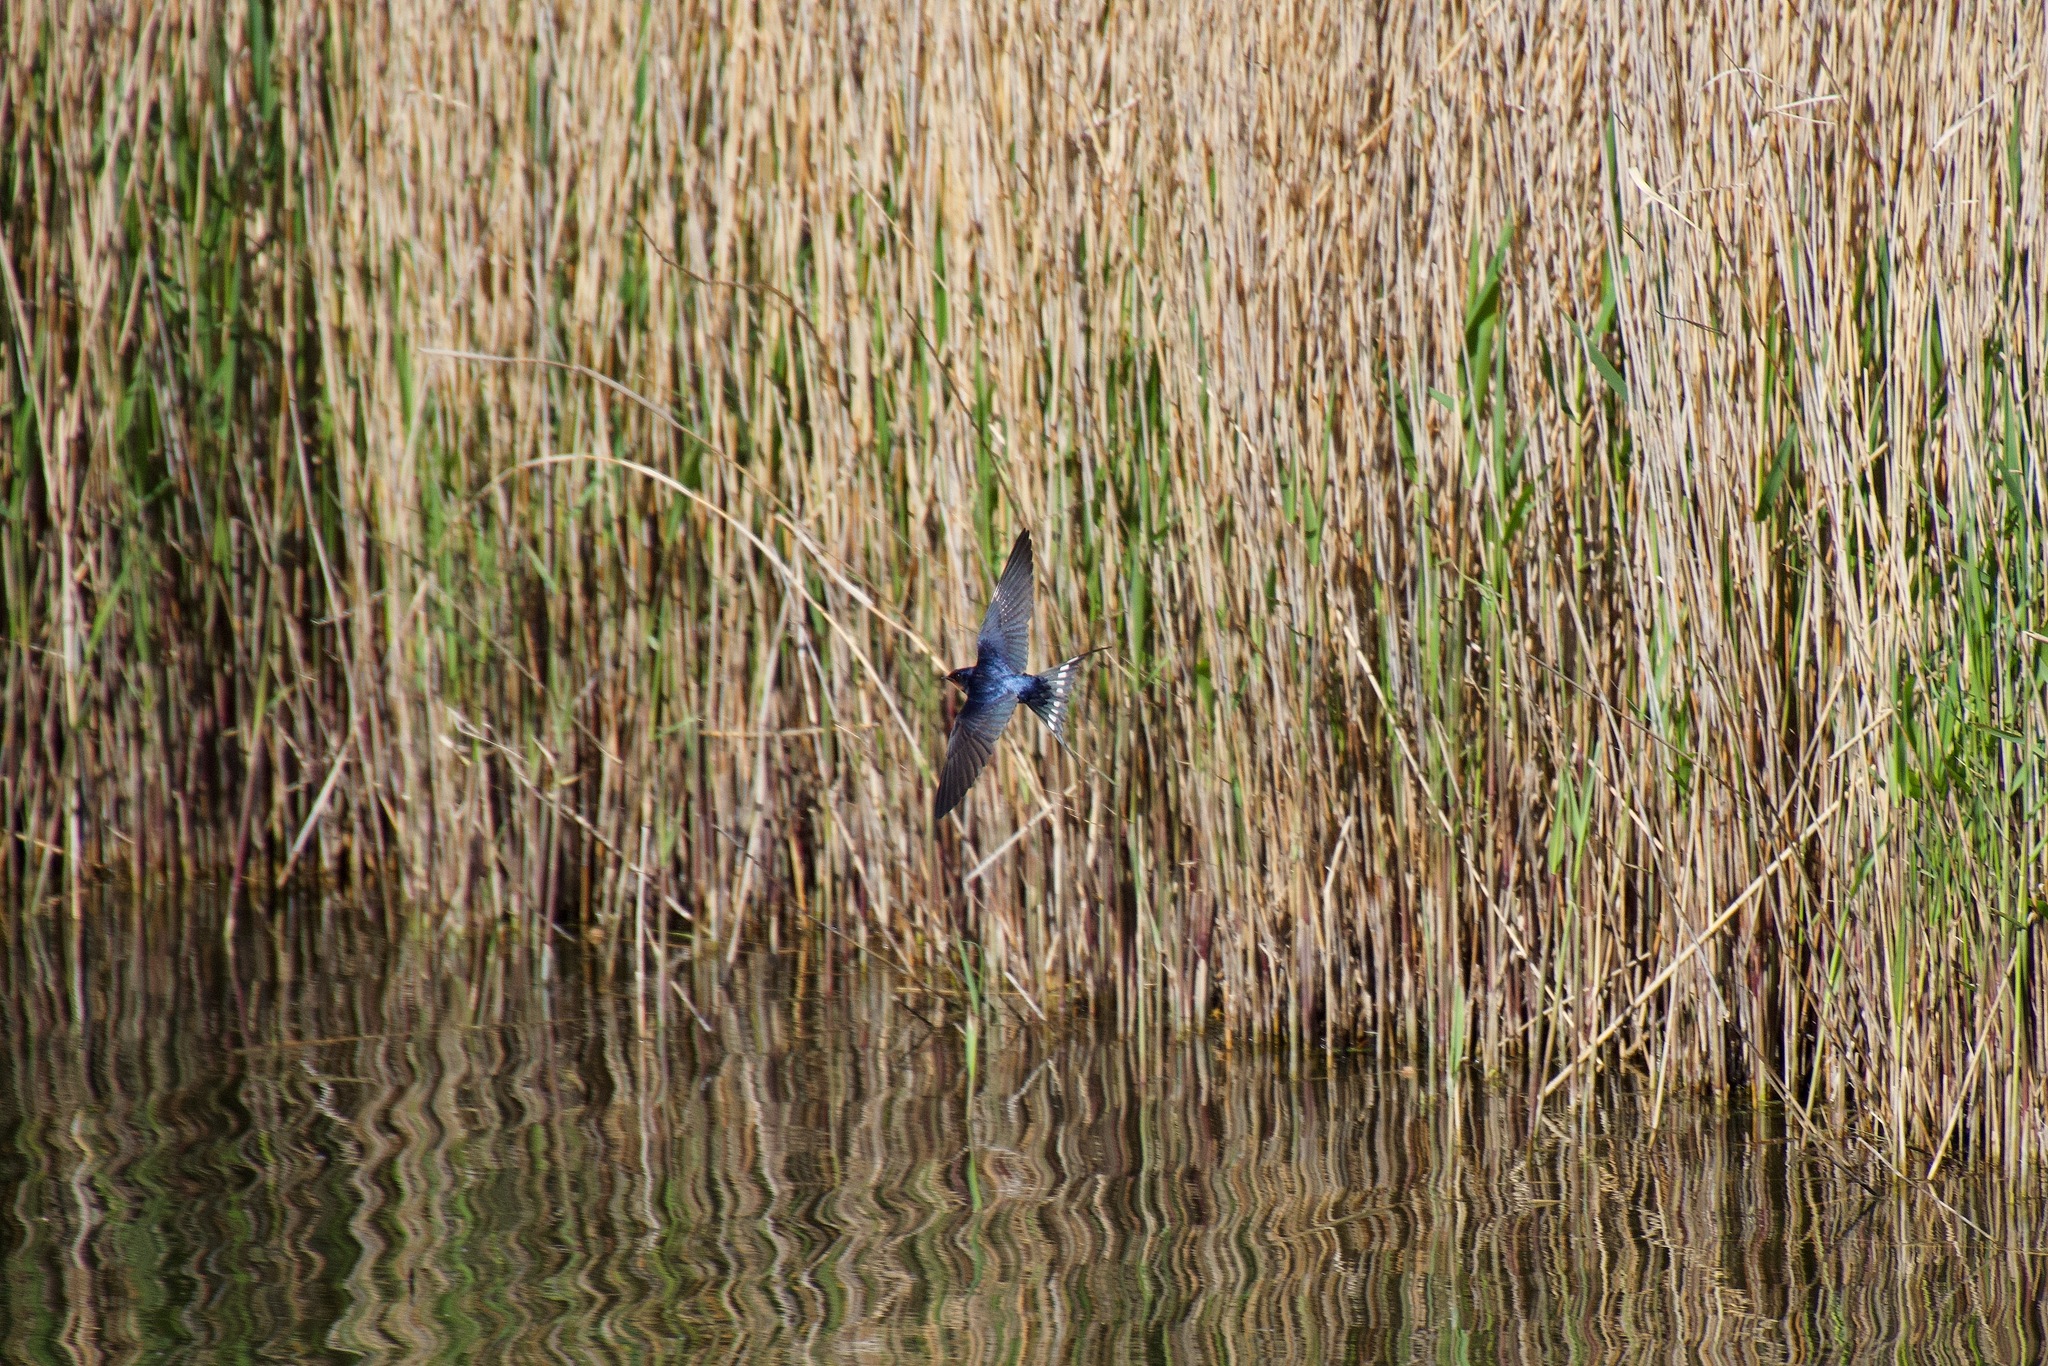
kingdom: Animalia
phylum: Chordata
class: Aves
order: Passeriformes
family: Hirundinidae
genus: Hirundo
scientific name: Hirundo rustica
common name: Barn swallow
